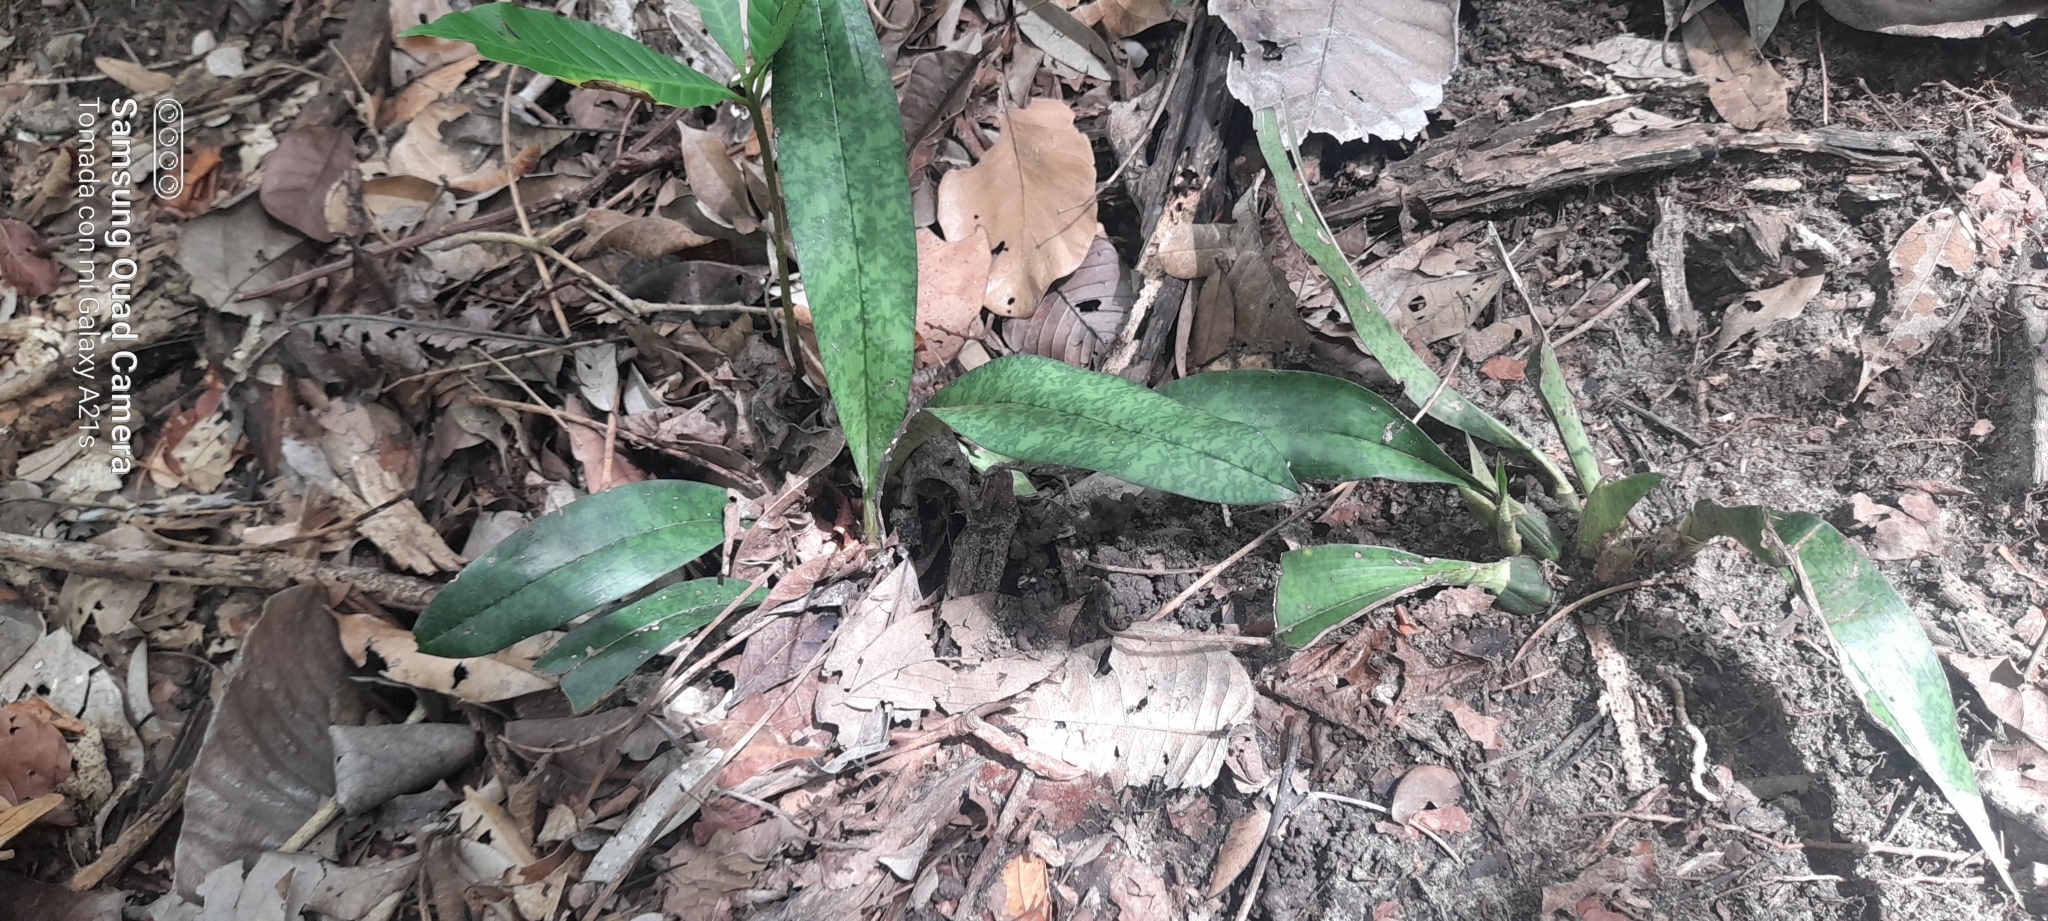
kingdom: Plantae
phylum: Tracheophyta
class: Liliopsida
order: Asparagales
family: Orchidaceae
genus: Eulophia
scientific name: Eulophia maculata
